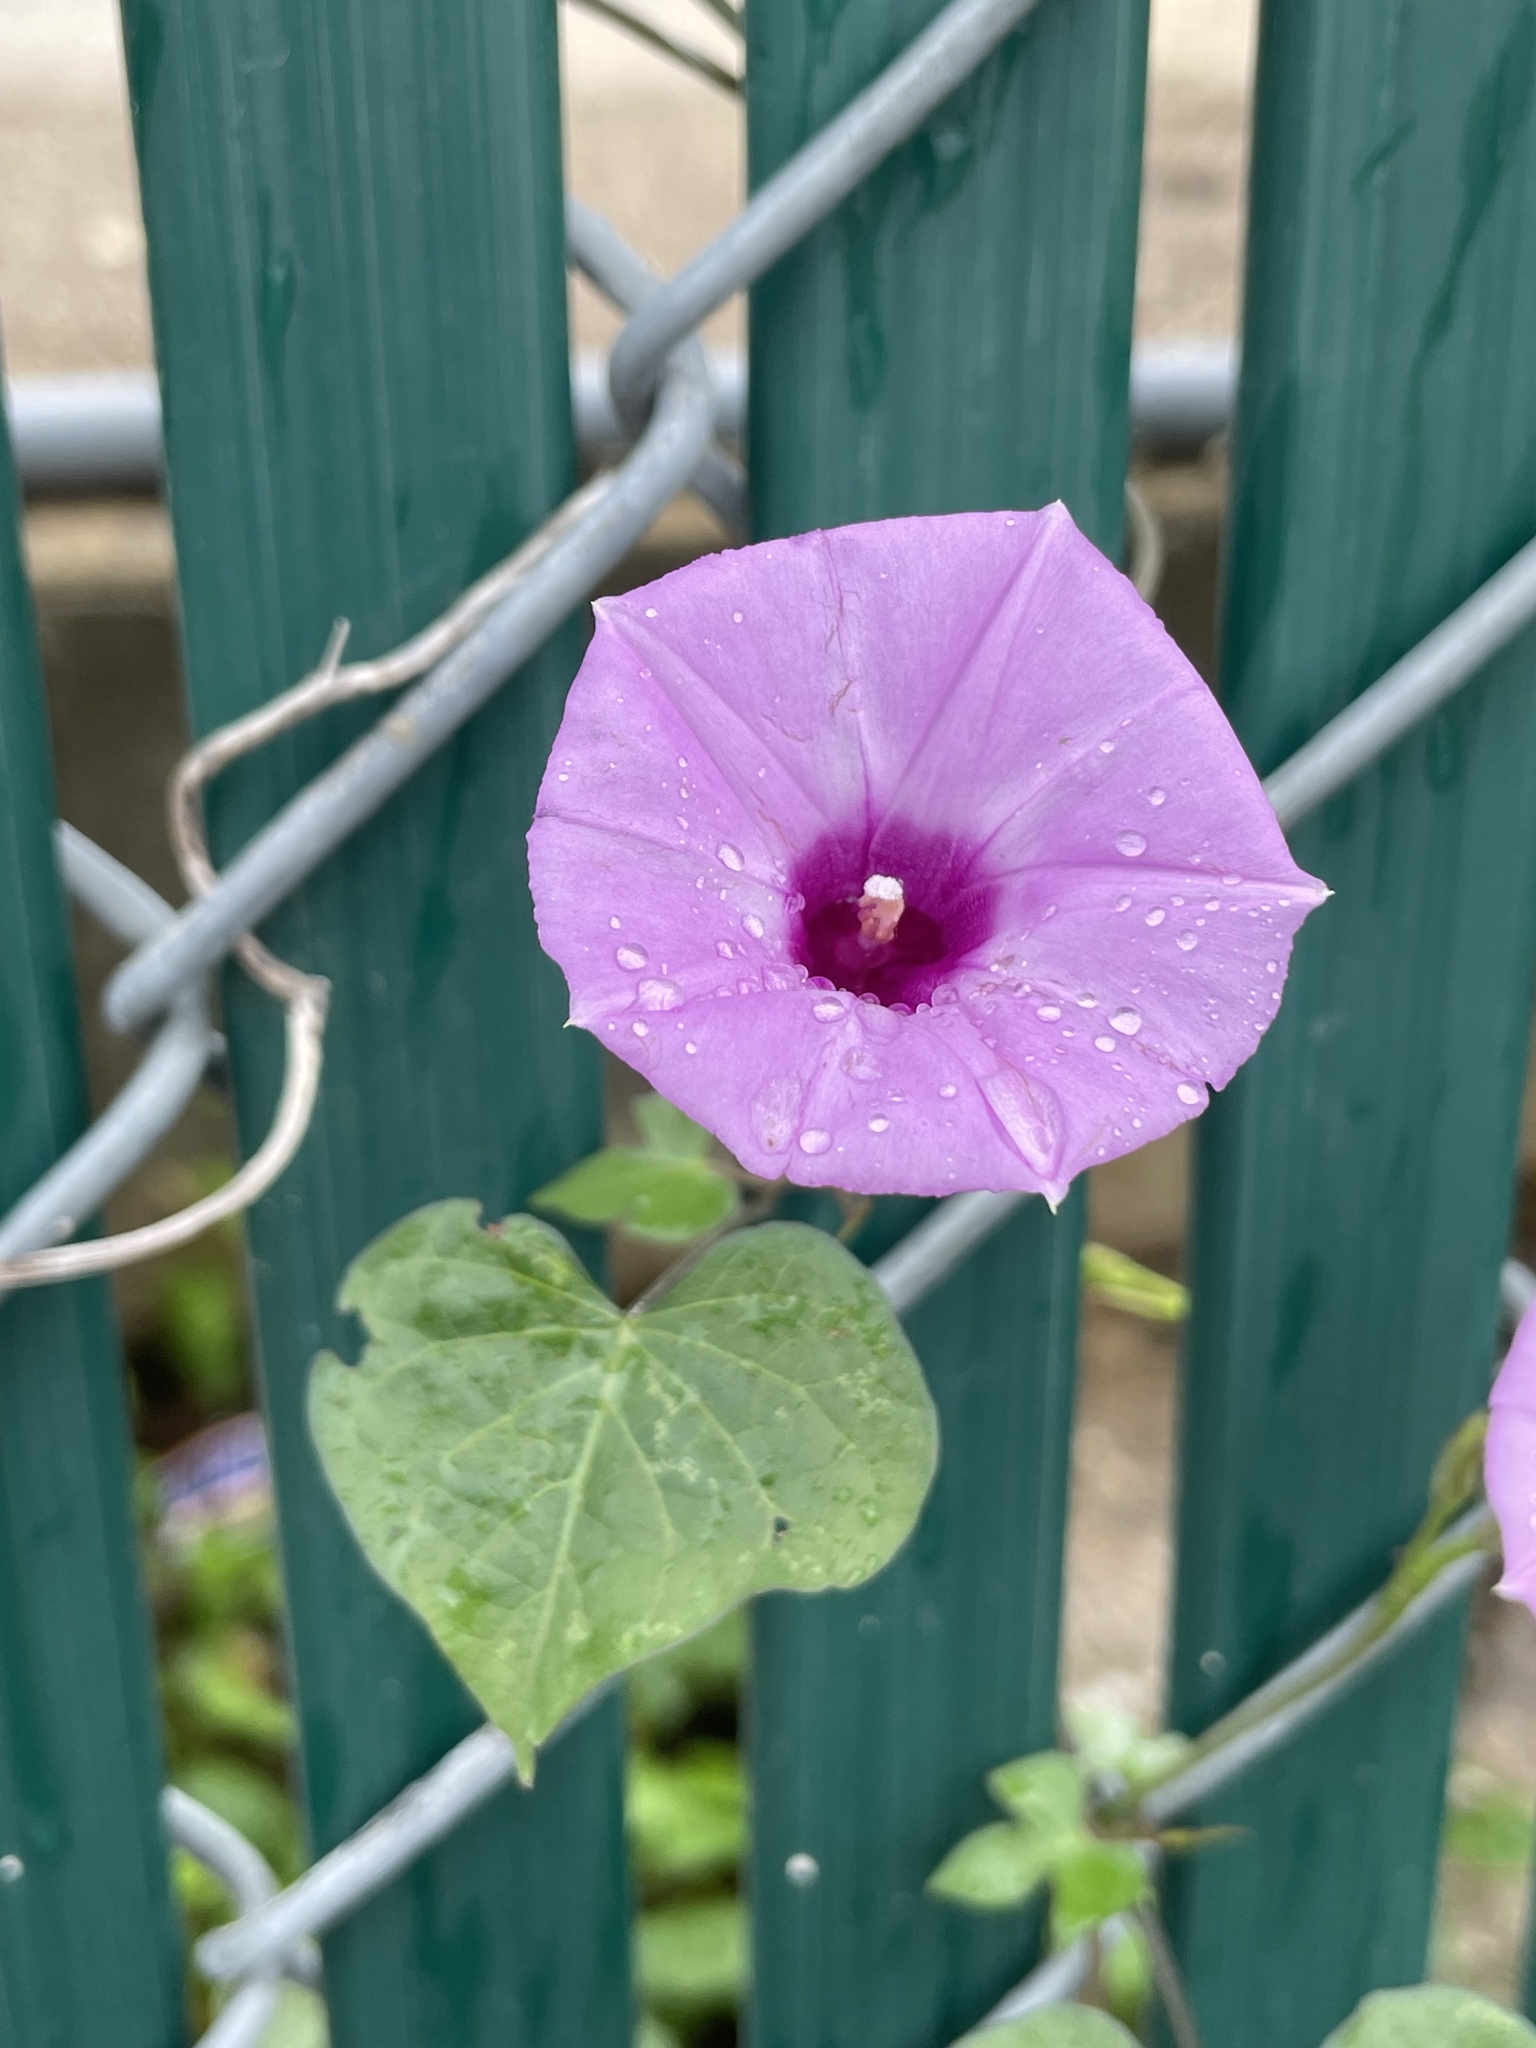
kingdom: Plantae
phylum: Tracheophyta
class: Magnoliopsida
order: Solanales
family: Convolvulaceae
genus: Ipomoea
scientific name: Ipomoea cordatotriloba
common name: Cotton morning glory
